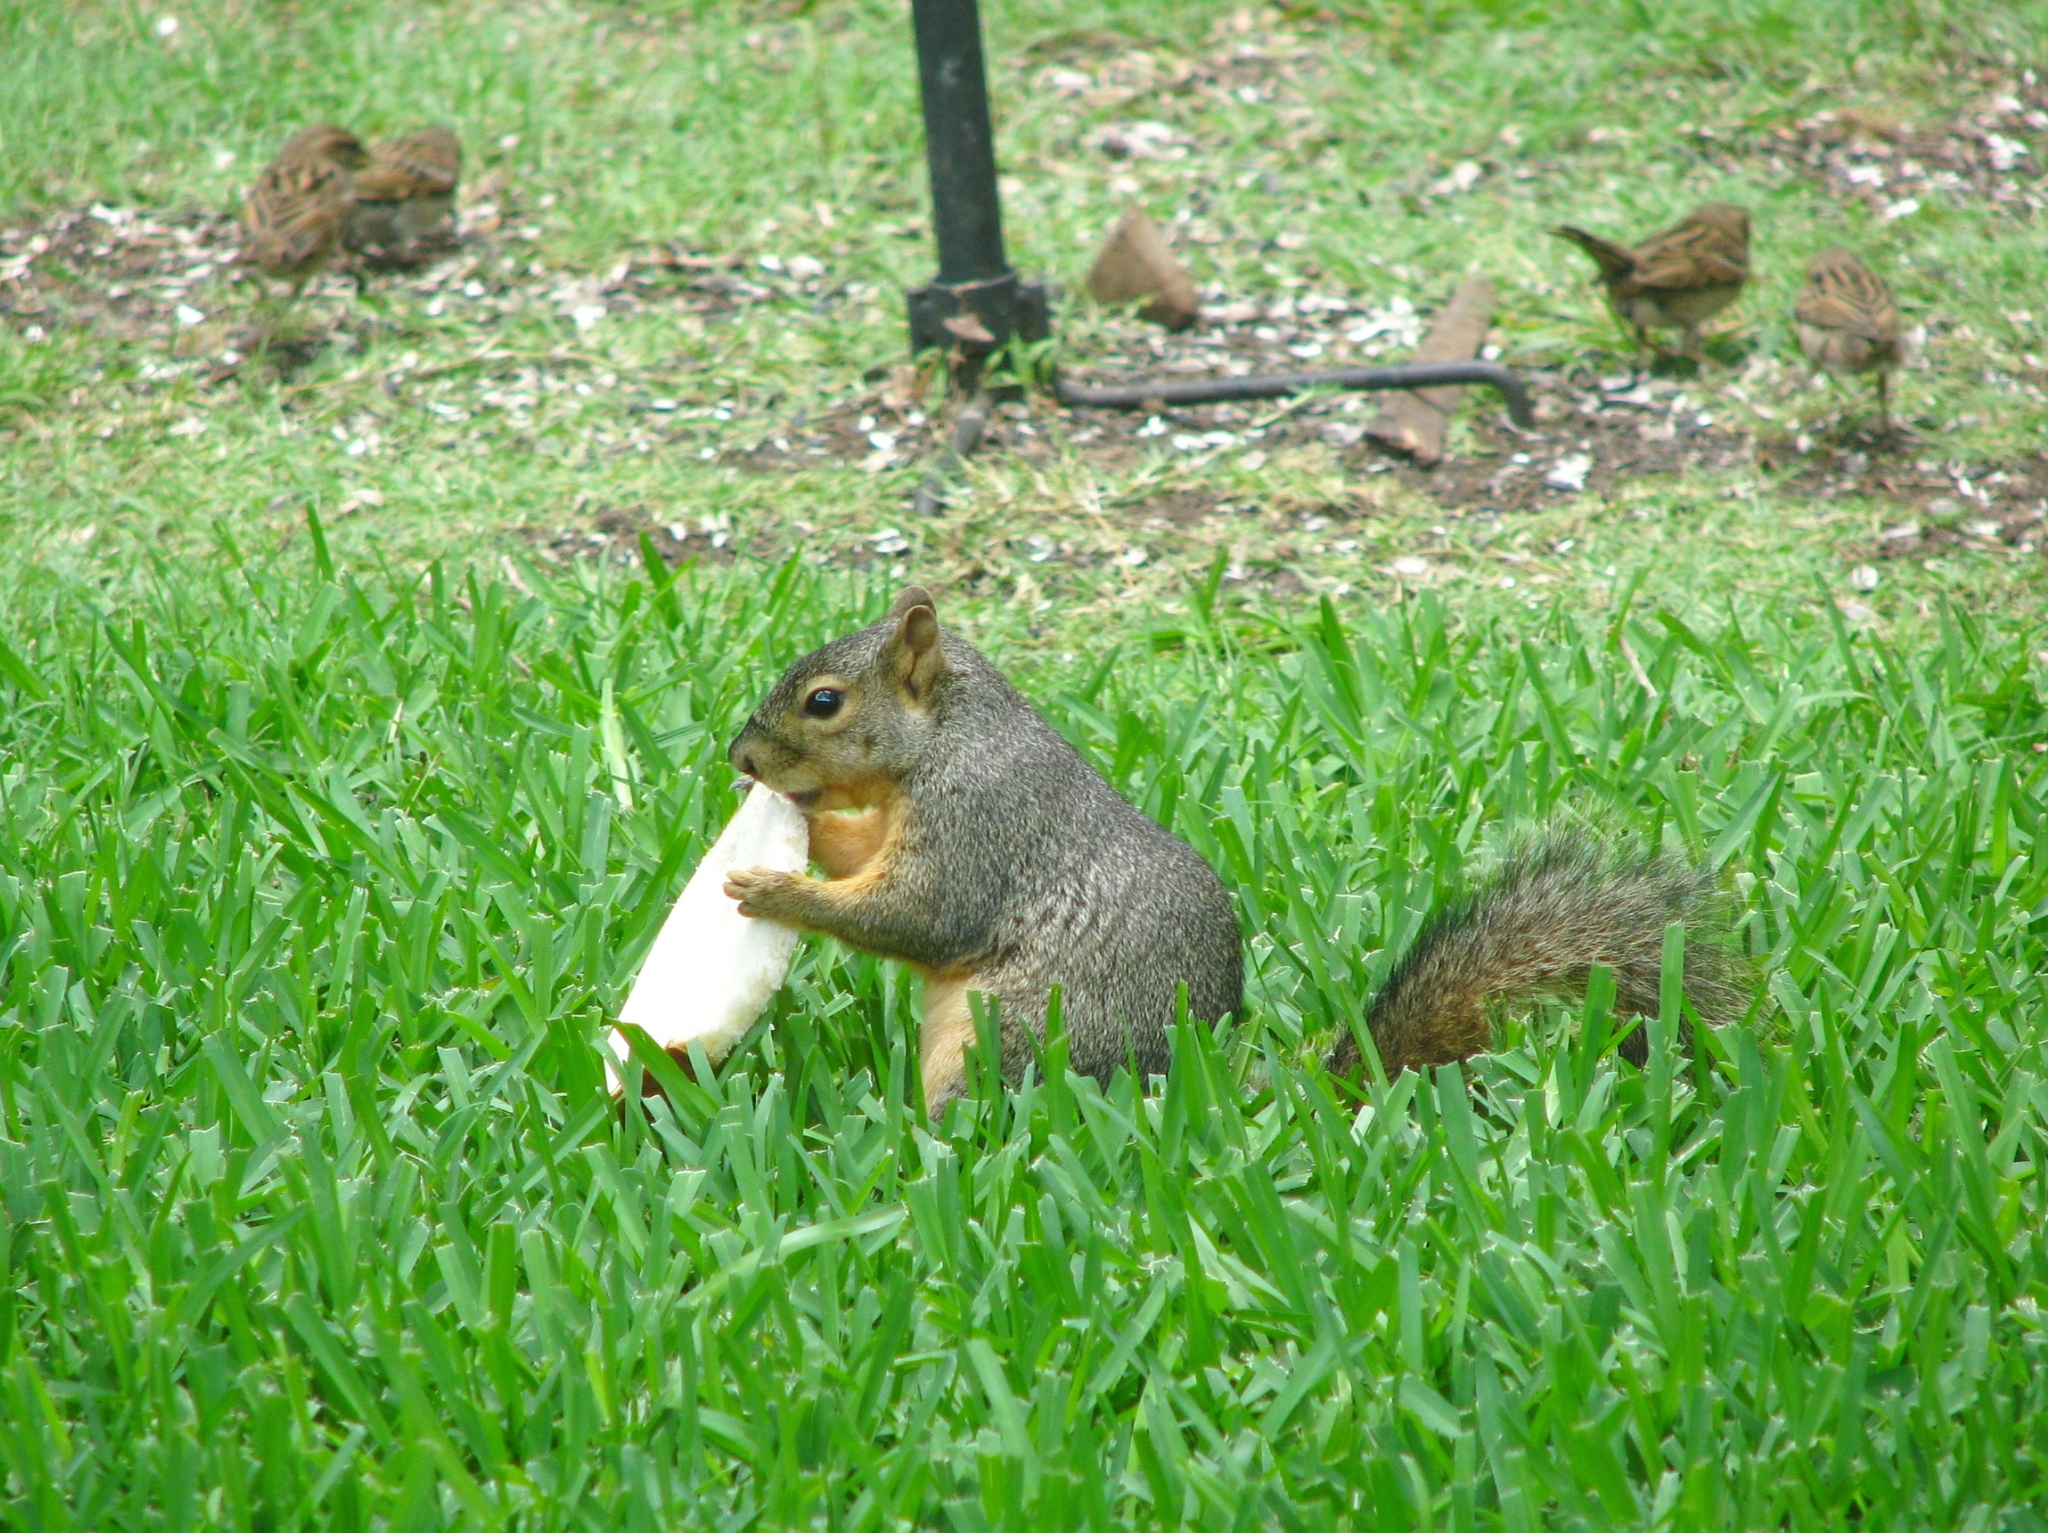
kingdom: Animalia
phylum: Chordata
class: Mammalia
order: Rodentia
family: Sciuridae
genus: Sciurus
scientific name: Sciurus niger
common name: Fox squirrel
